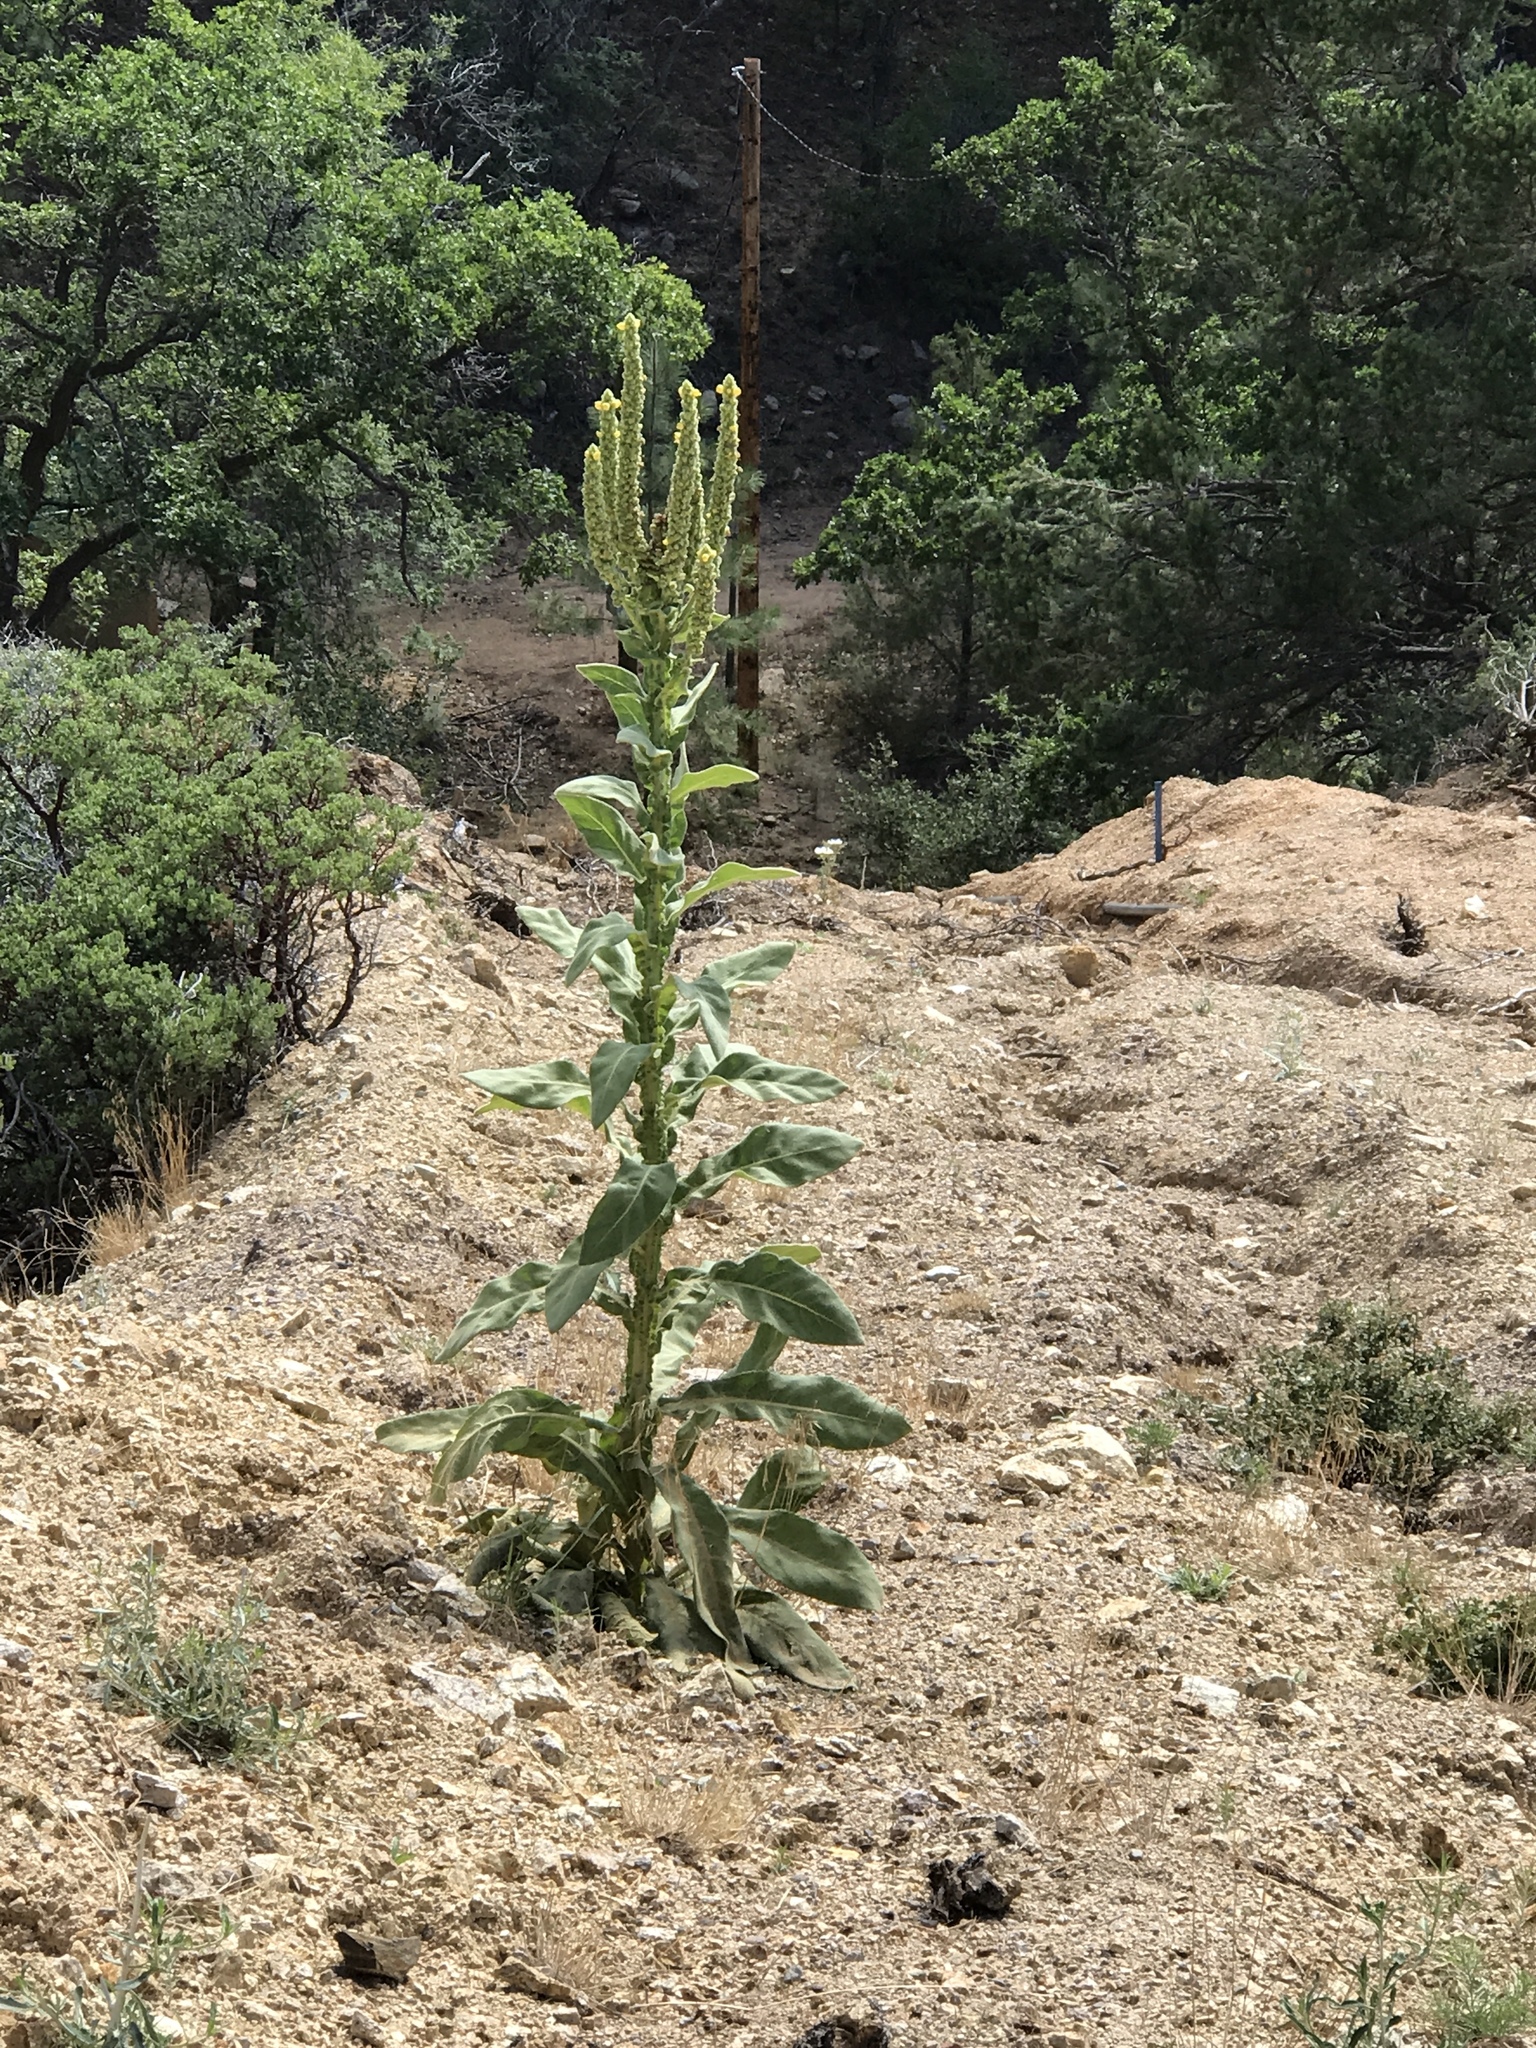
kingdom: Plantae
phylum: Tracheophyta
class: Magnoliopsida
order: Lamiales
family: Scrophulariaceae
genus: Verbascum
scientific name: Verbascum thapsus
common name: Common mullein
